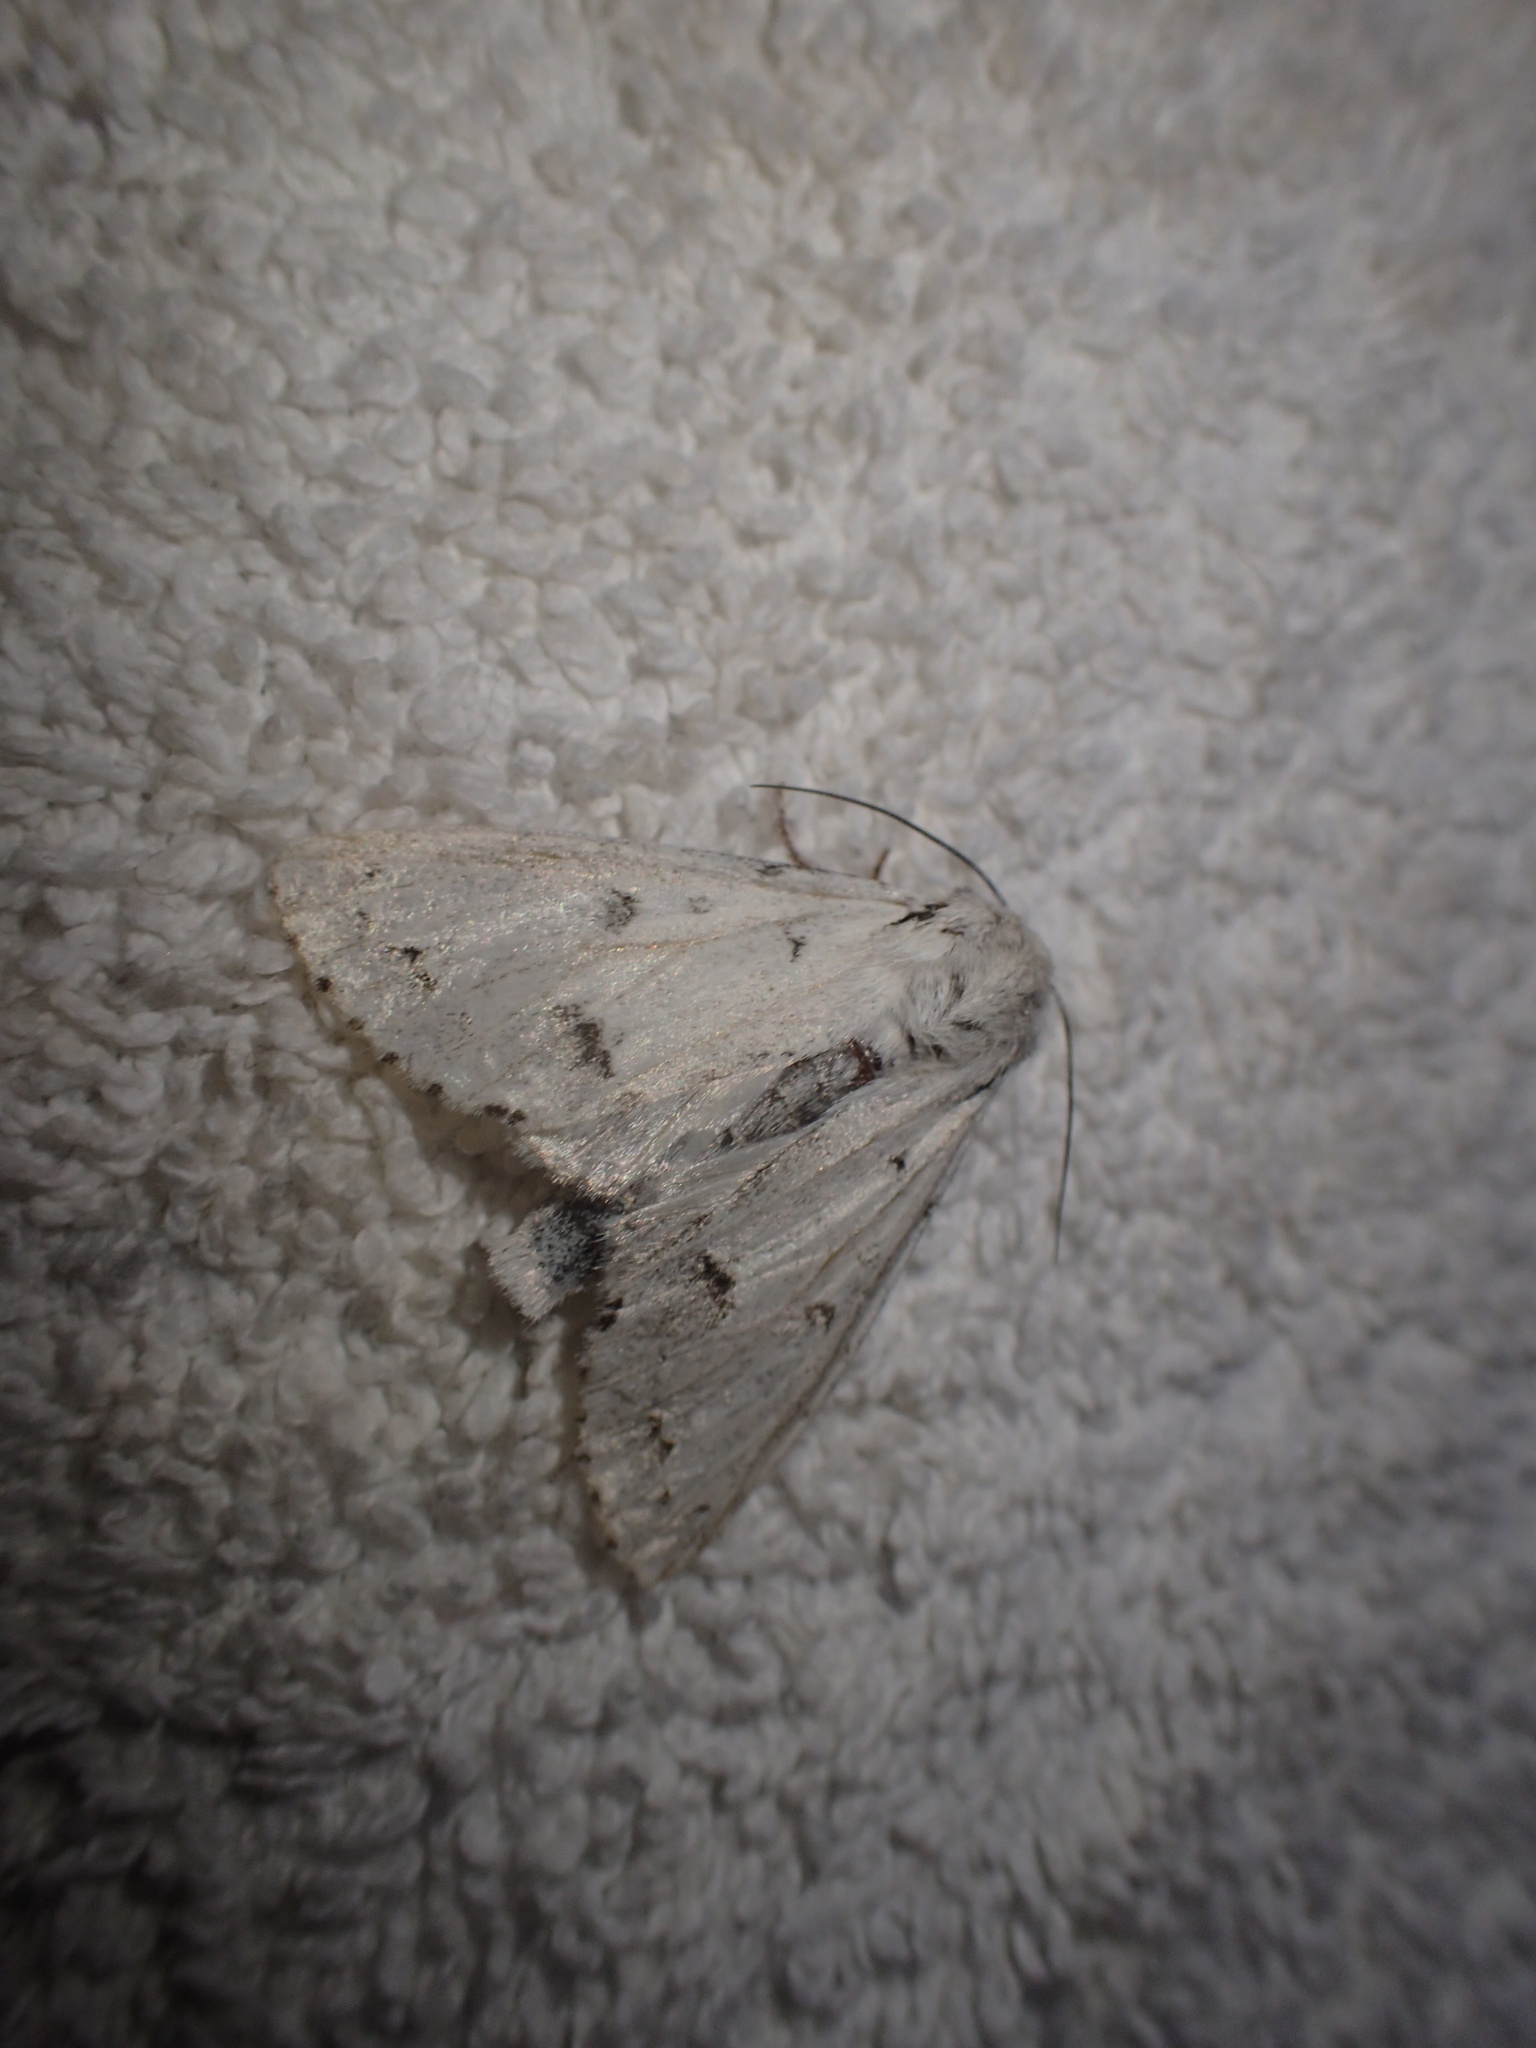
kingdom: Animalia
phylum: Arthropoda
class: Insecta
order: Lepidoptera
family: Noctuidae
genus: Acronicta
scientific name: Acronicta innotata
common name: Unmarked dagger
